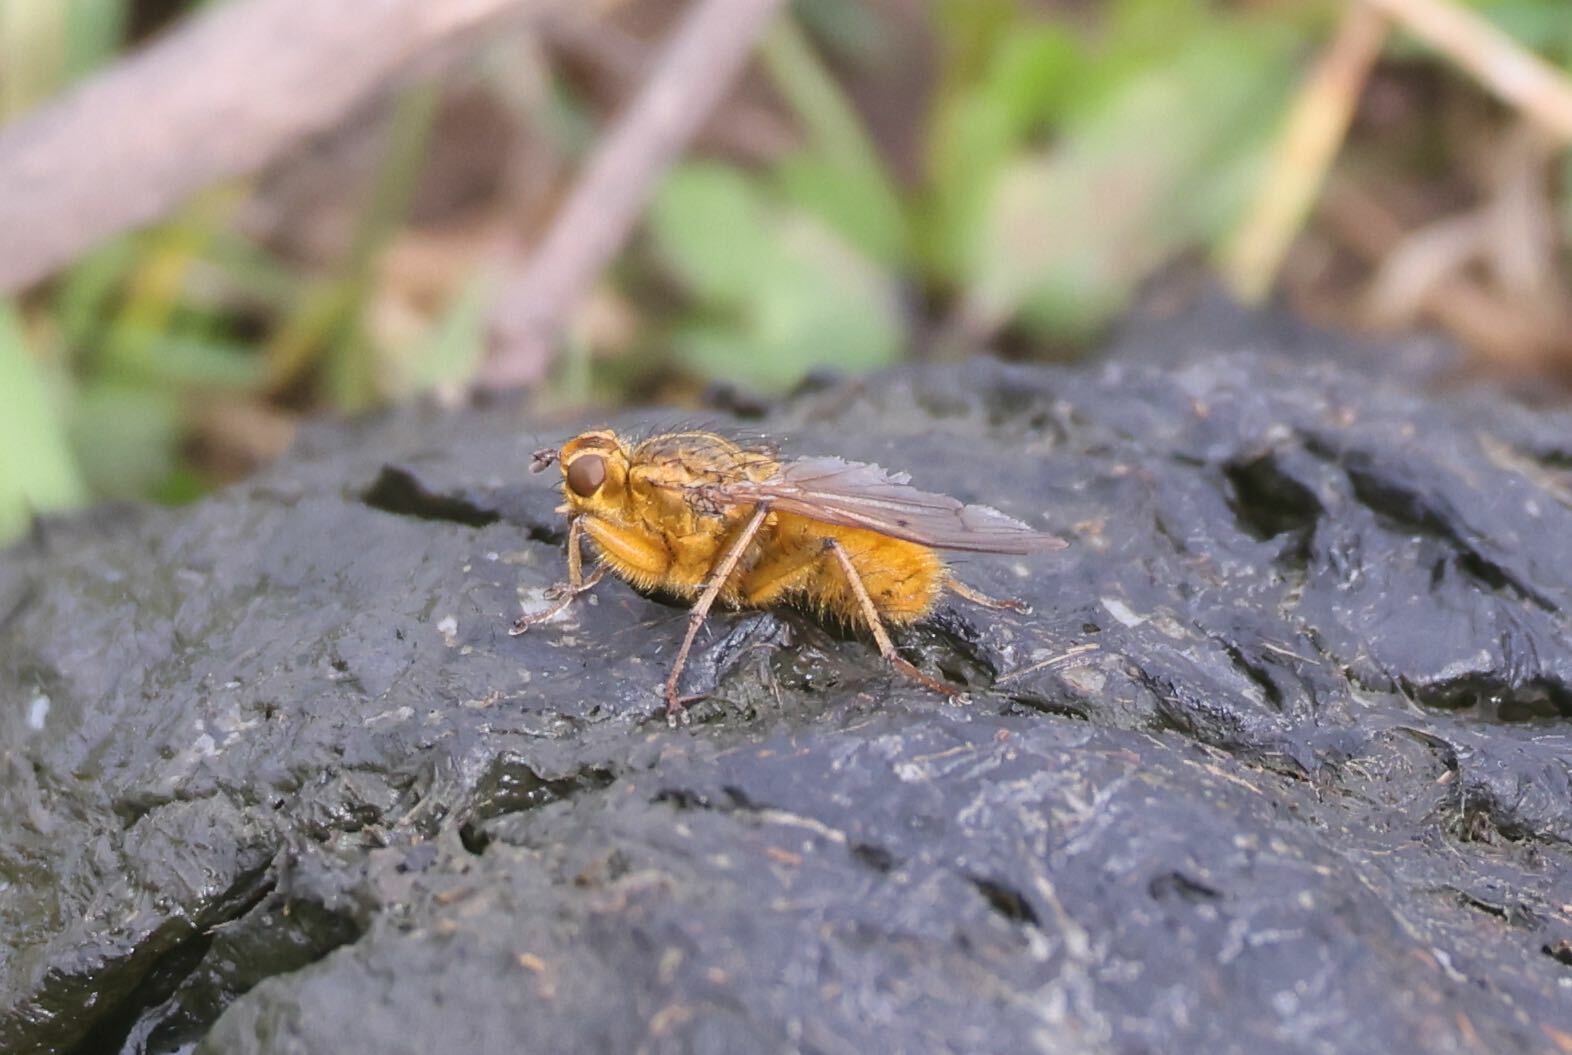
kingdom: Animalia
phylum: Arthropoda
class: Insecta
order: Diptera
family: Scathophagidae
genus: Scathophaga
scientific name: Scathophaga stercoraria
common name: Yellow dung fly
